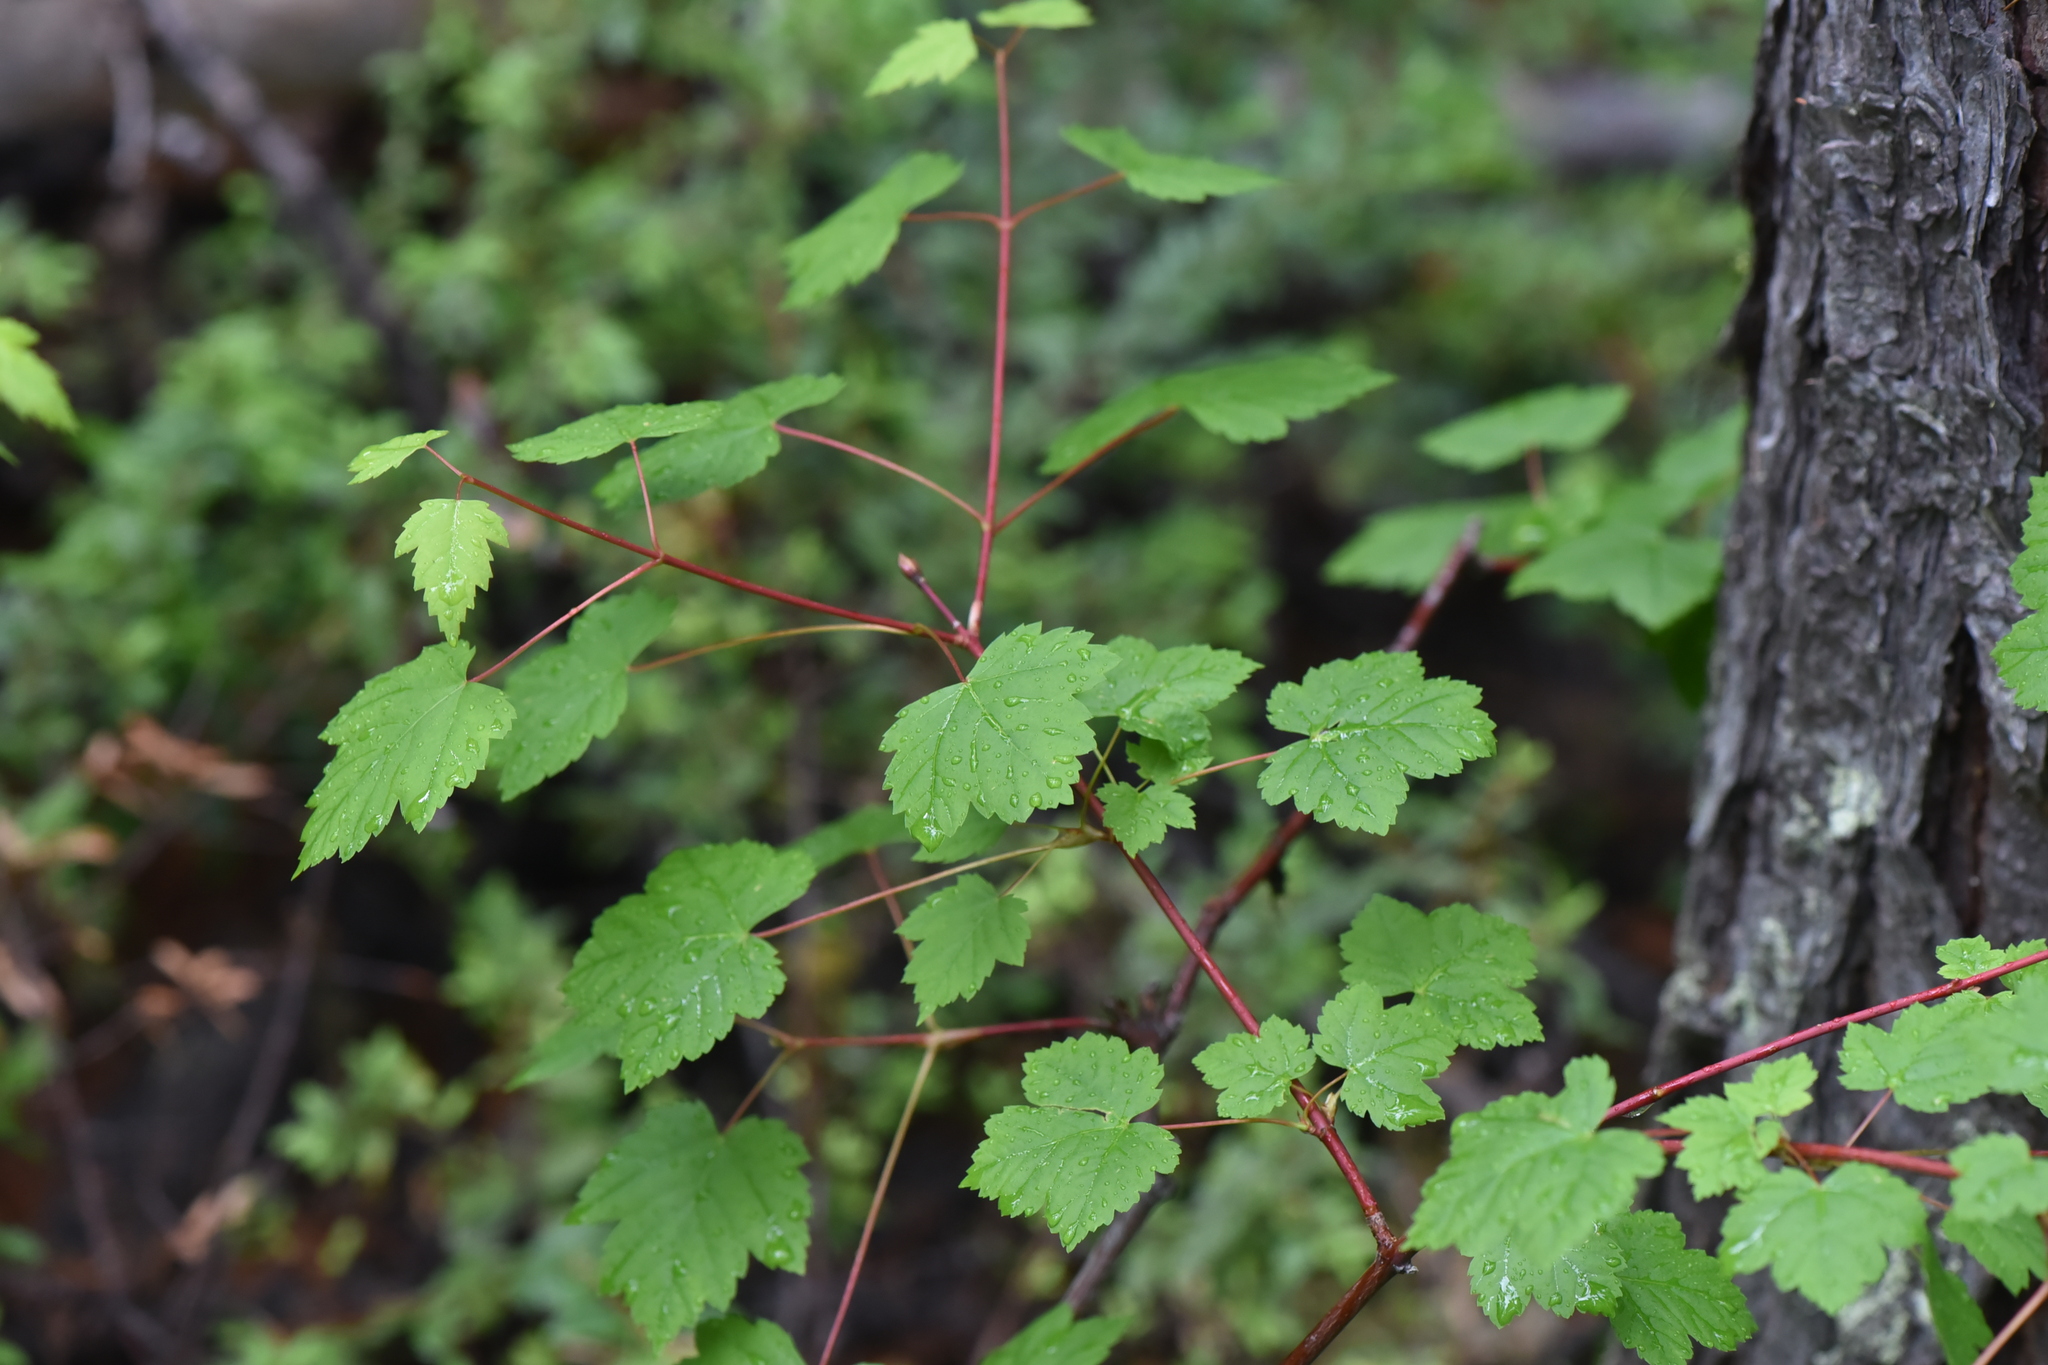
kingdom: Plantae
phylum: Tracheophyta
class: Magnoliopsida
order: Sapindales
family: Sapindaceae
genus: Acer
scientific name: Acer glabrum
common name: Rocky mountain maple
